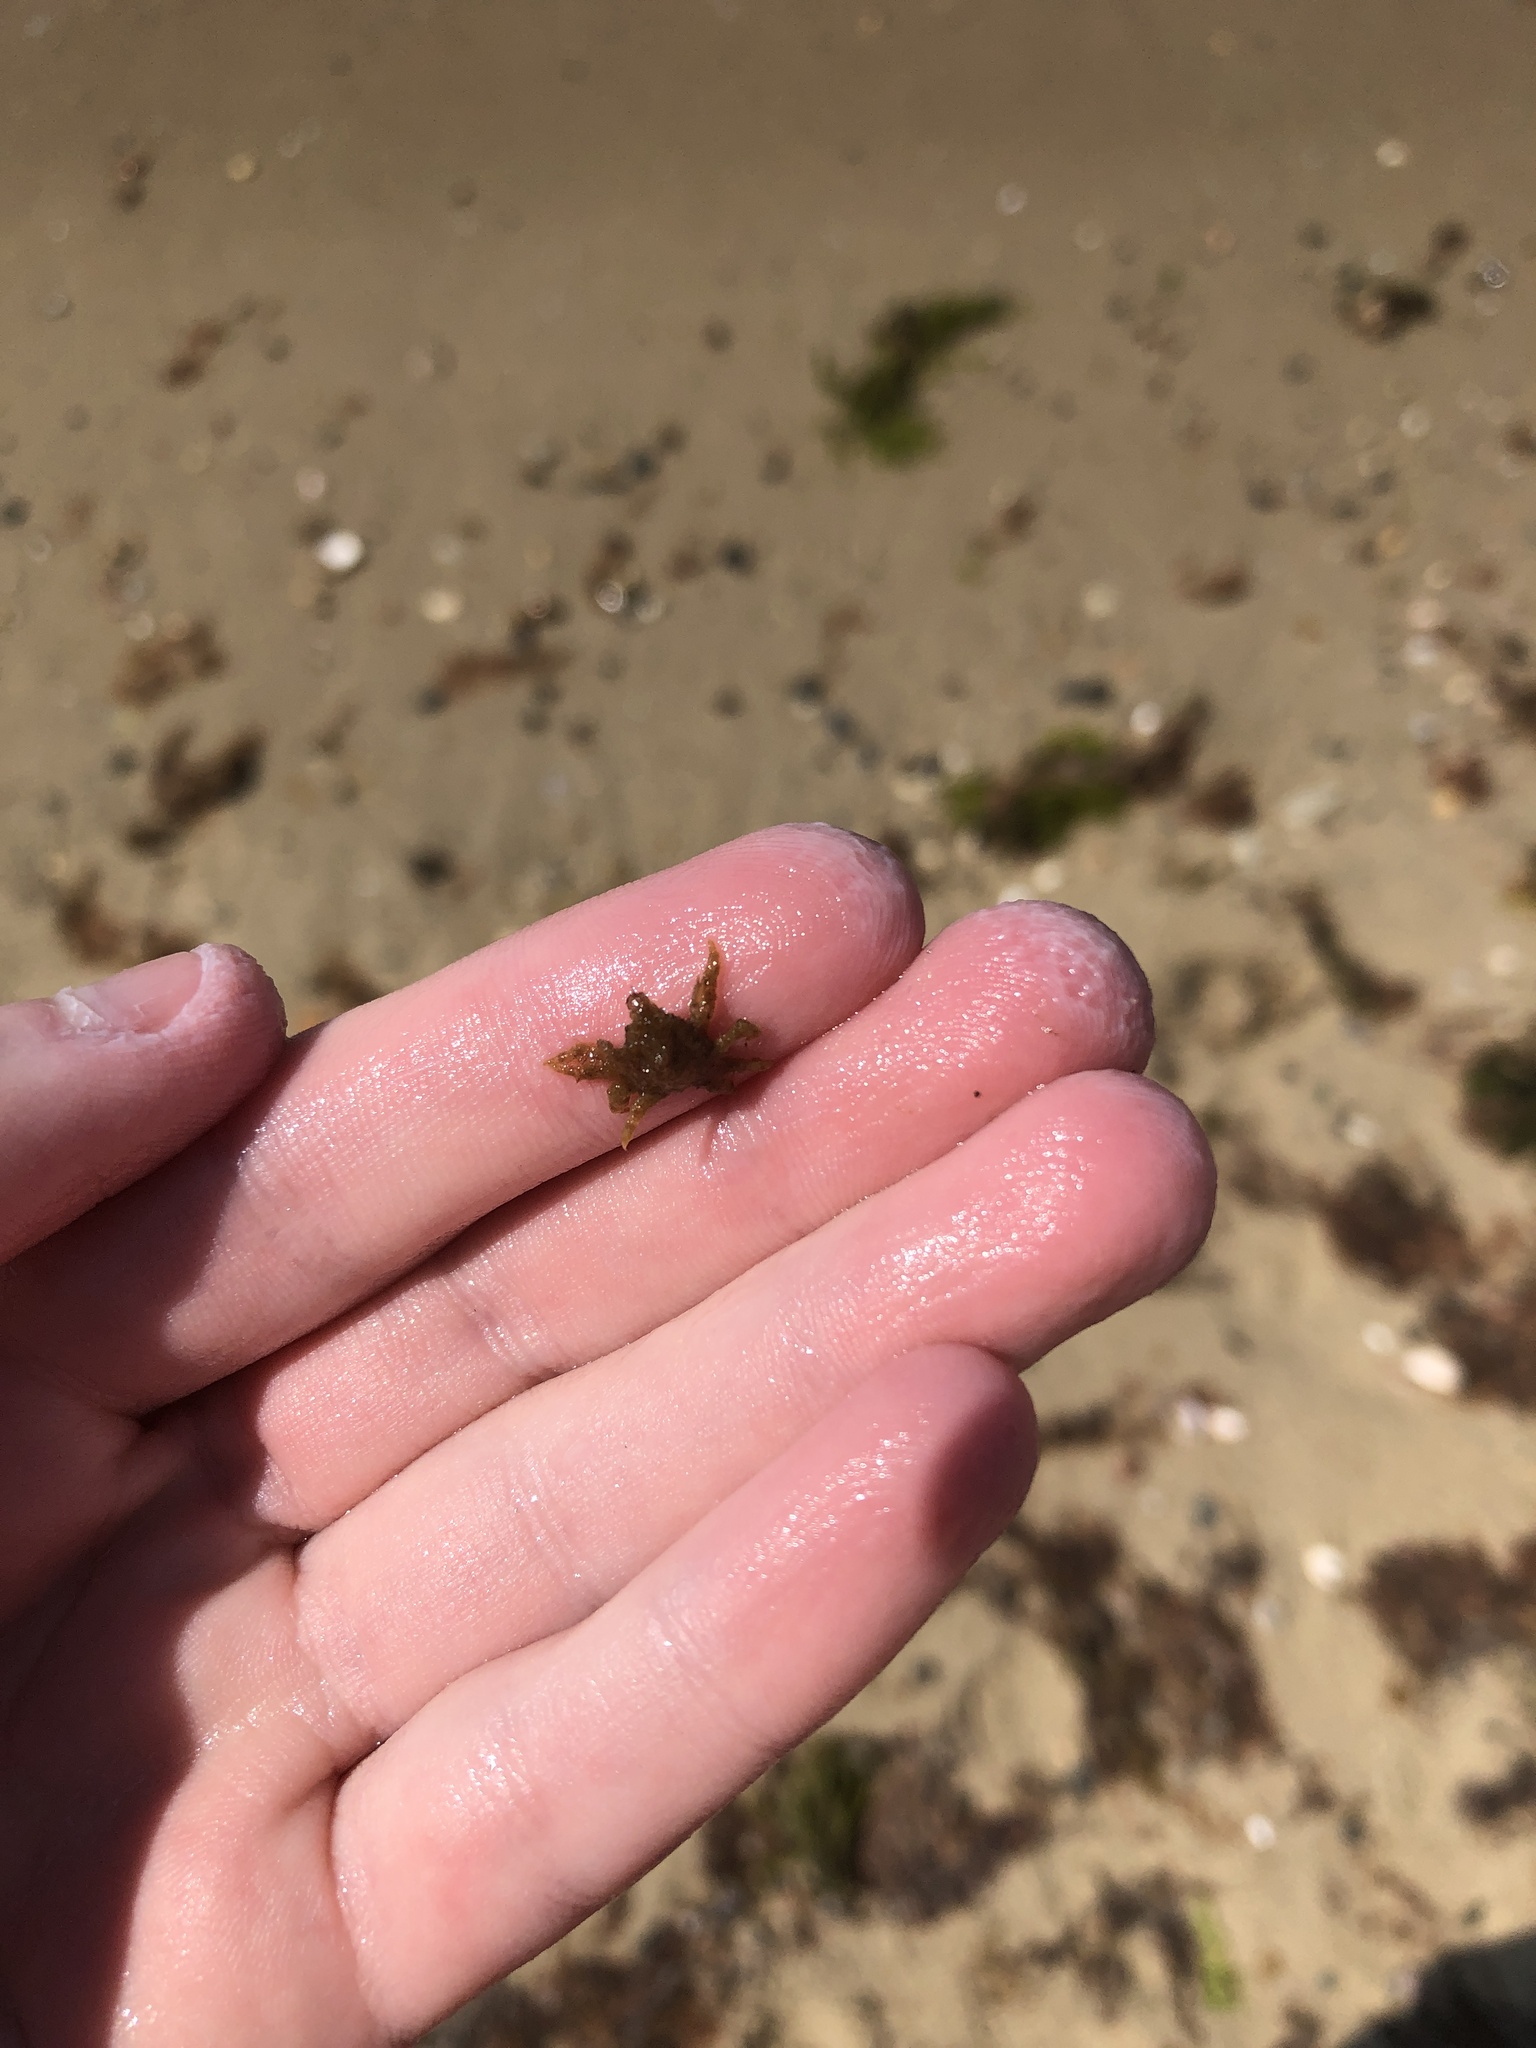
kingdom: Animalia
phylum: Arthropoda
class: Malacostraca
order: Decapoda
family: Epialtidae
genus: Libinia
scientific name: Libinia
